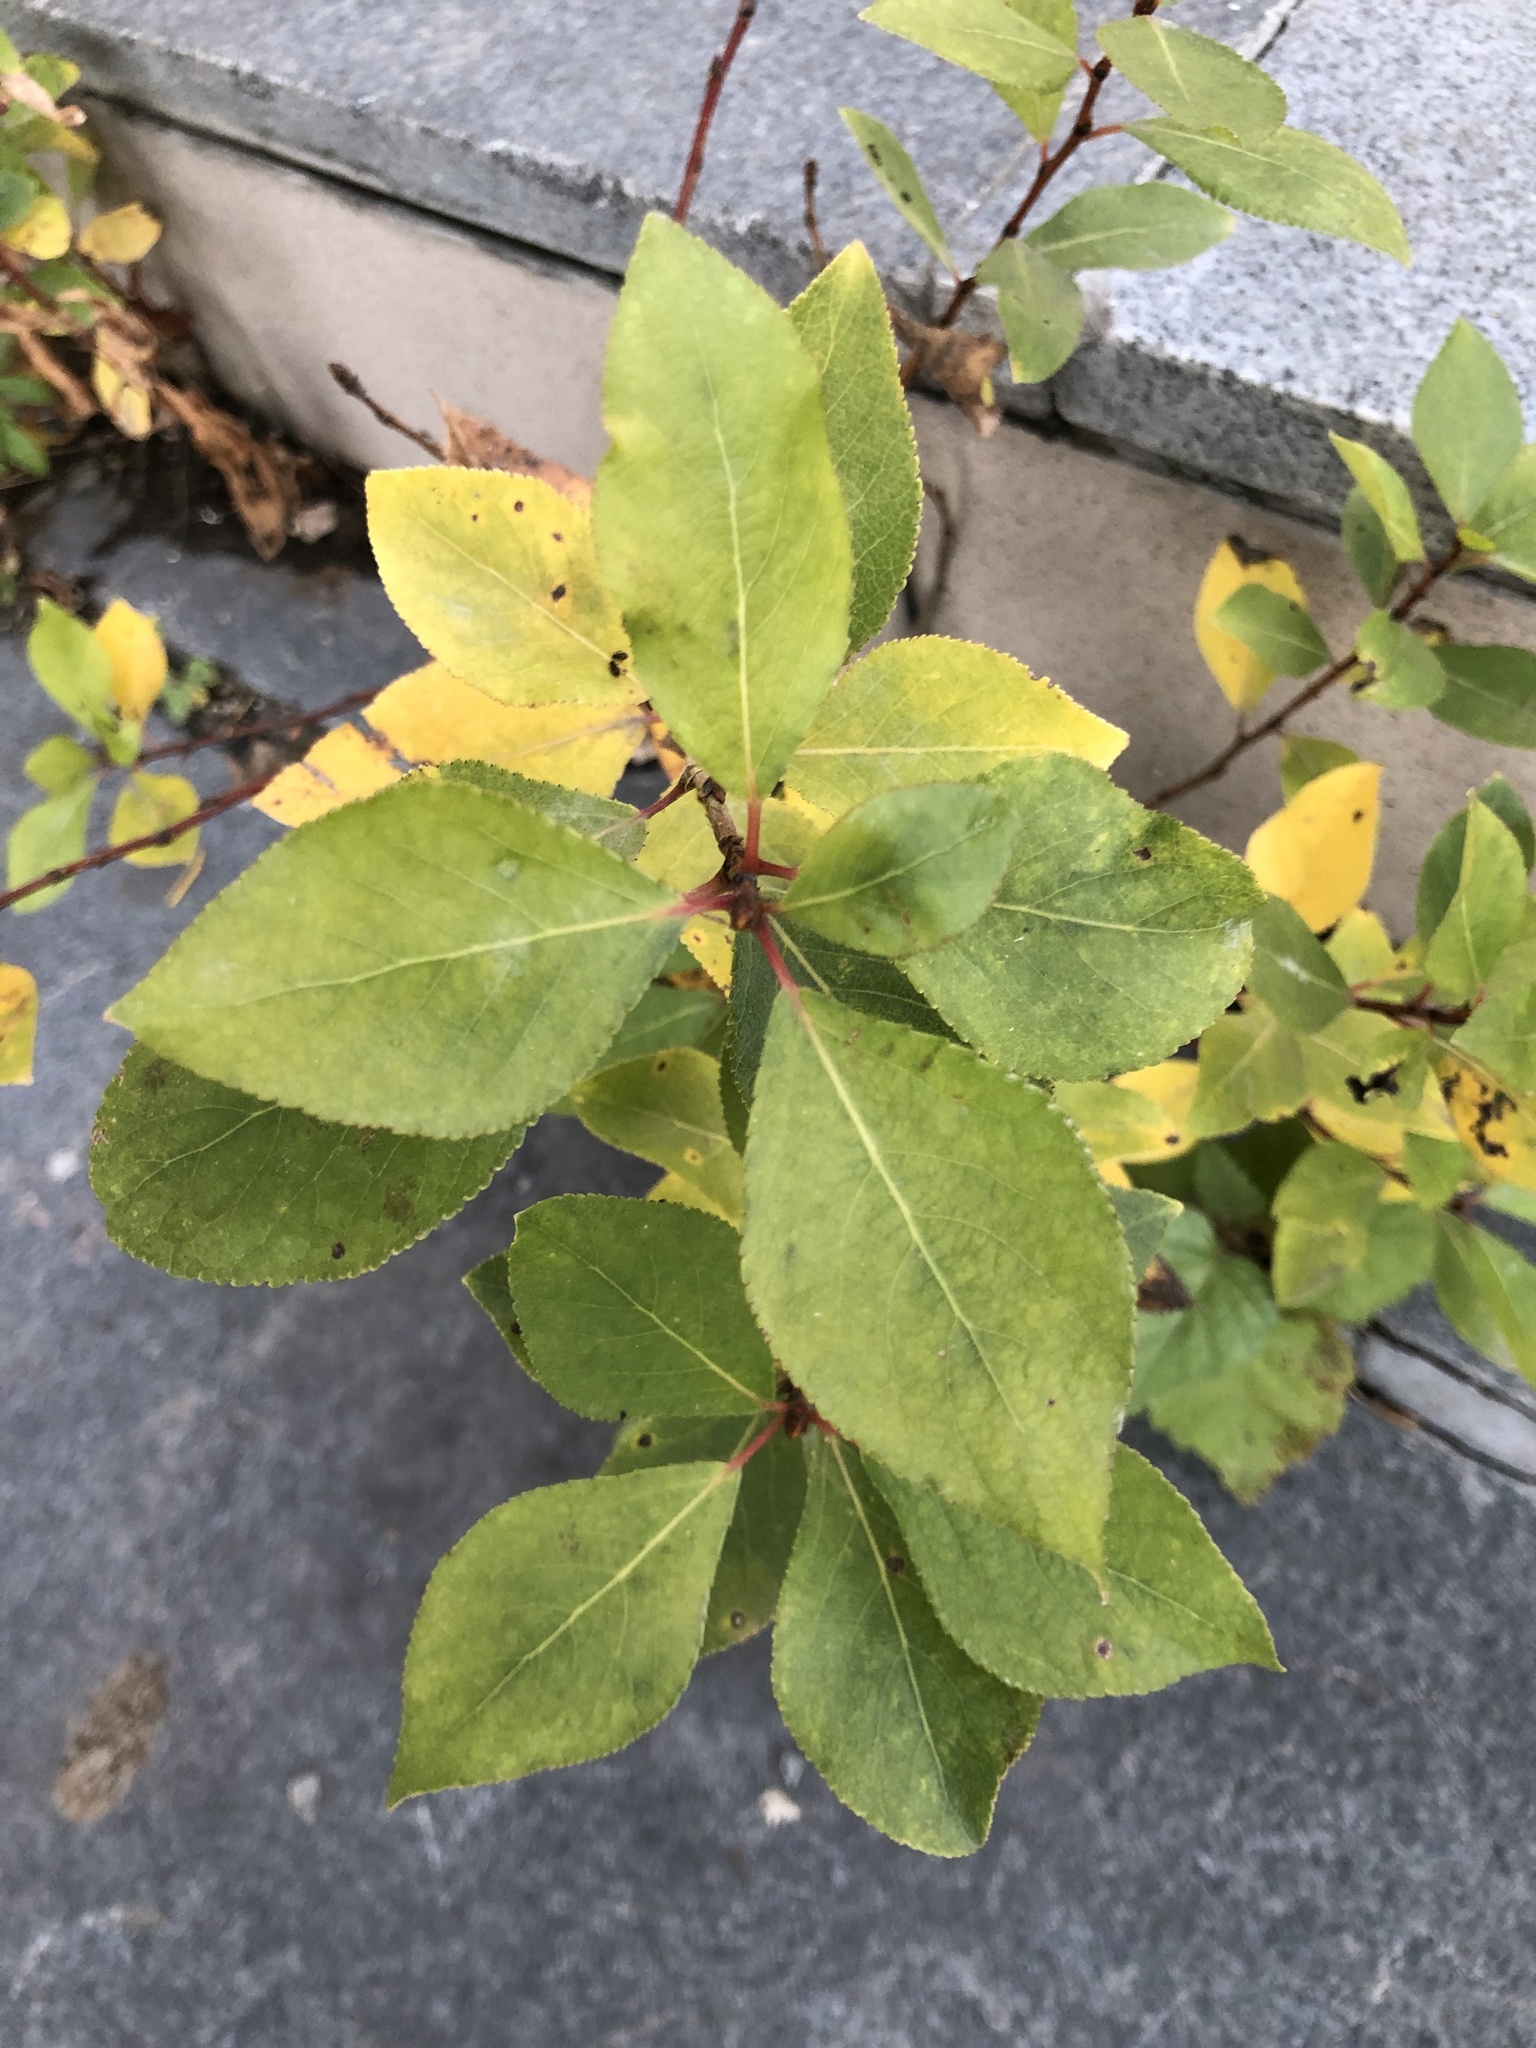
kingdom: Plantae
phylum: Tracheophyta
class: Magnoliopsida
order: Malpighiales
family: Salicaceae
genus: Populus
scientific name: Populus balsamifera
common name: Balsam poplar
